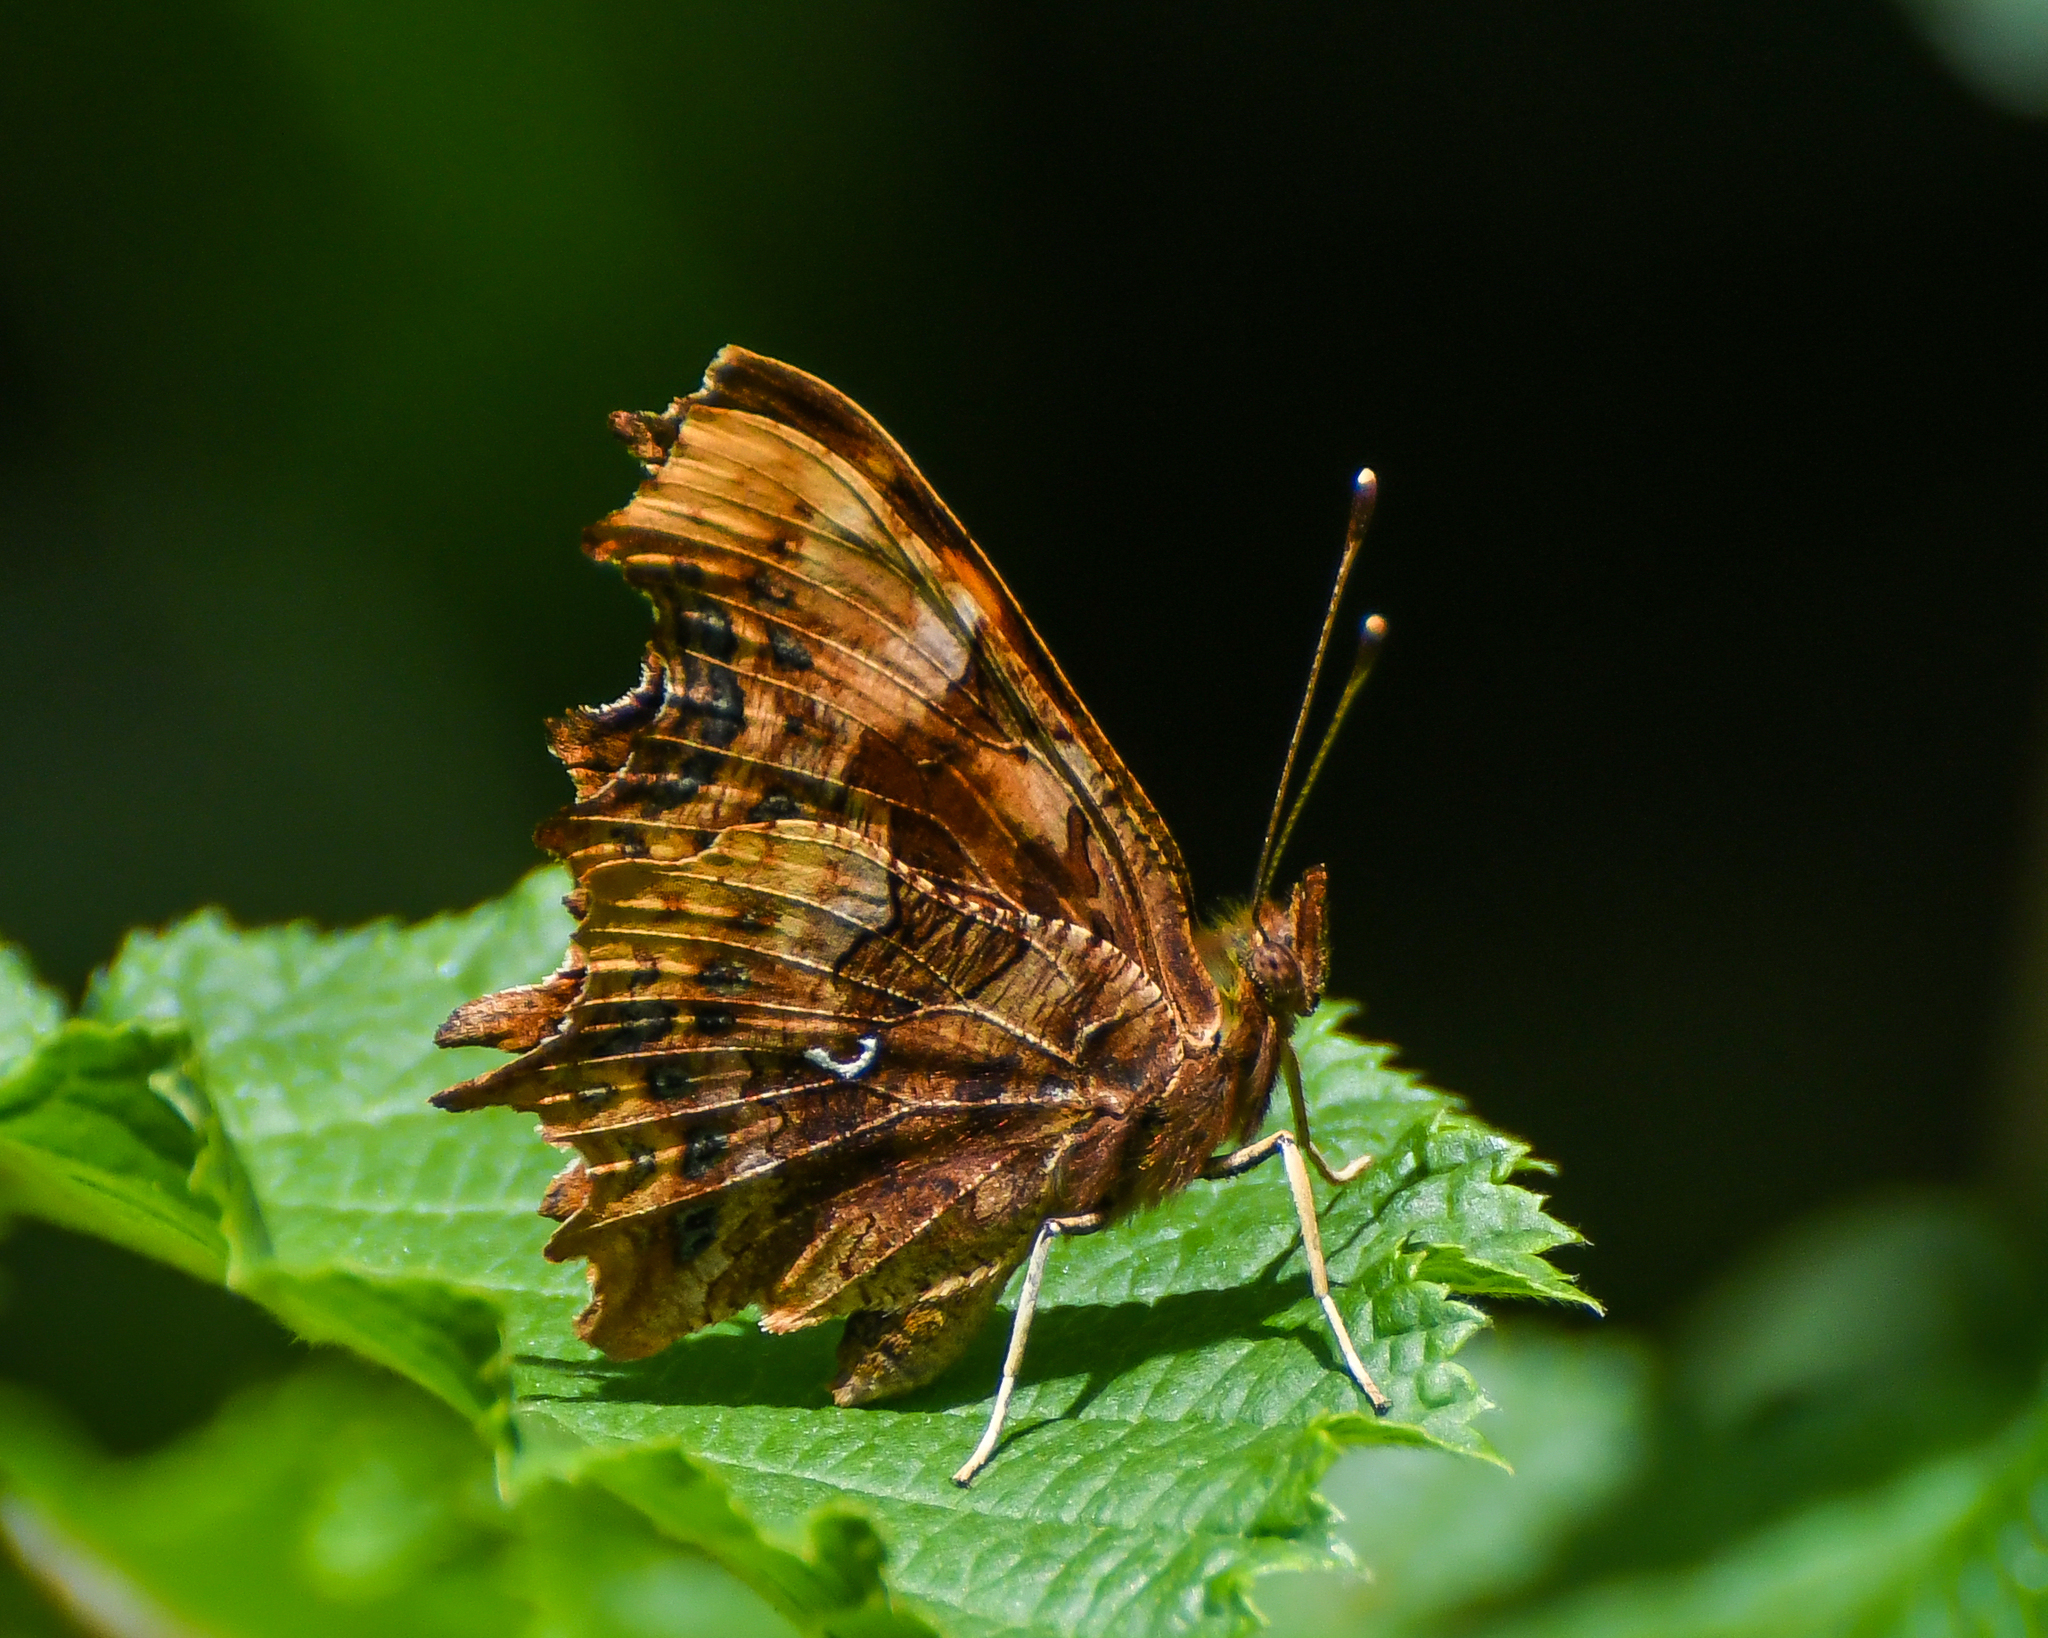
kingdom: Animalia
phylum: Arthropoda
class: Insecta
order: Lepidoptera
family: Nymphalidae
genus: Polygonia
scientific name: Polygonia c-album
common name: Comma
